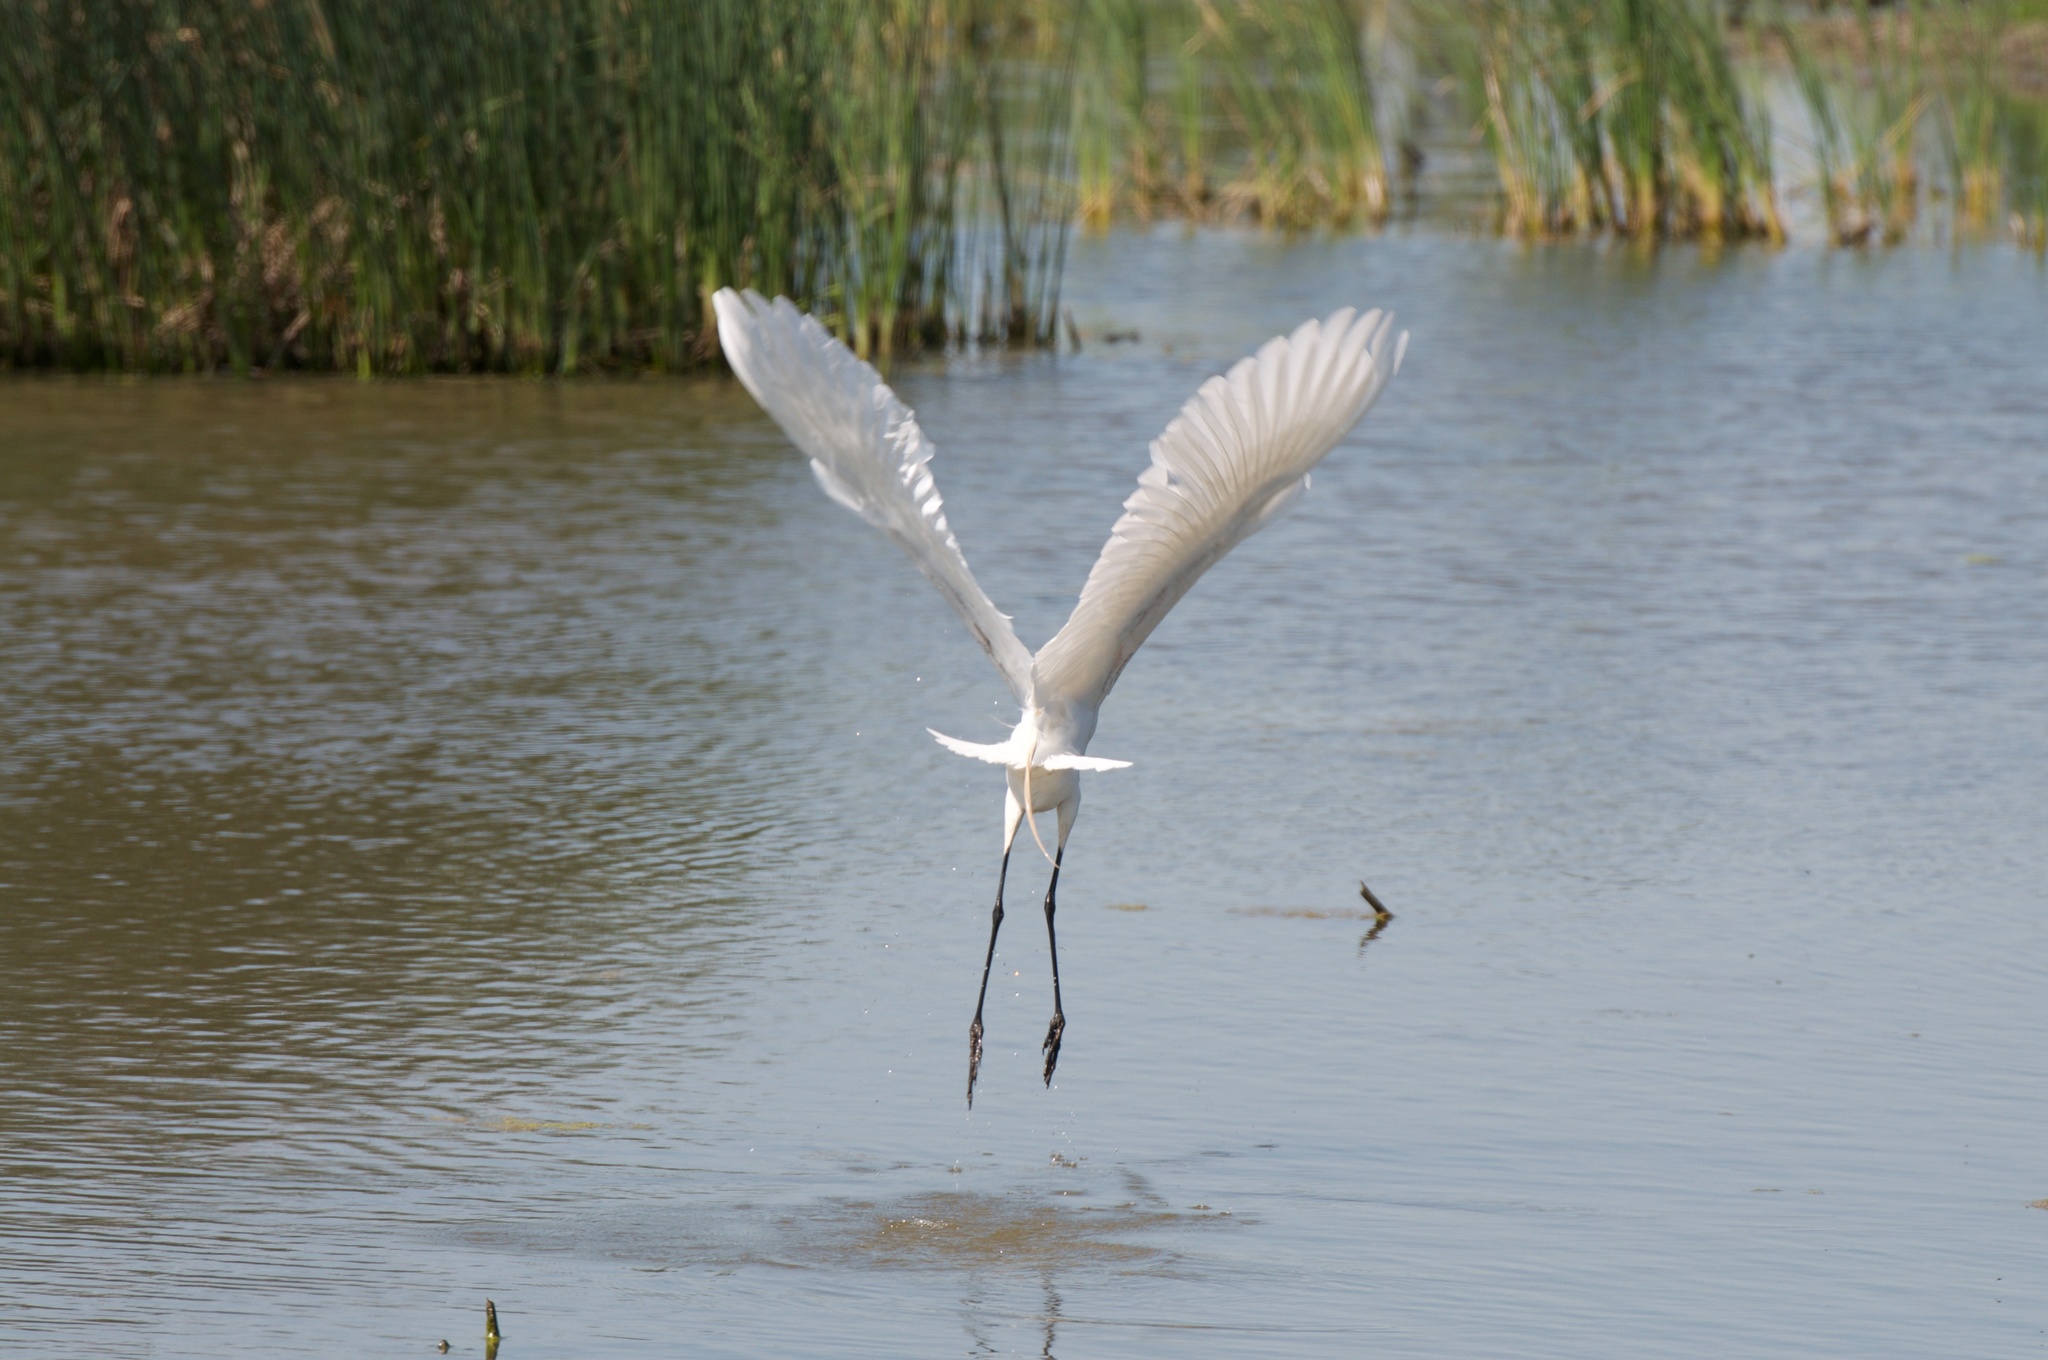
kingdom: Animalia
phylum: Chordata
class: Aves
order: Pelecaniformes
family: Ardeidae
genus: Ardea
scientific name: Ardea alba
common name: Great egret
